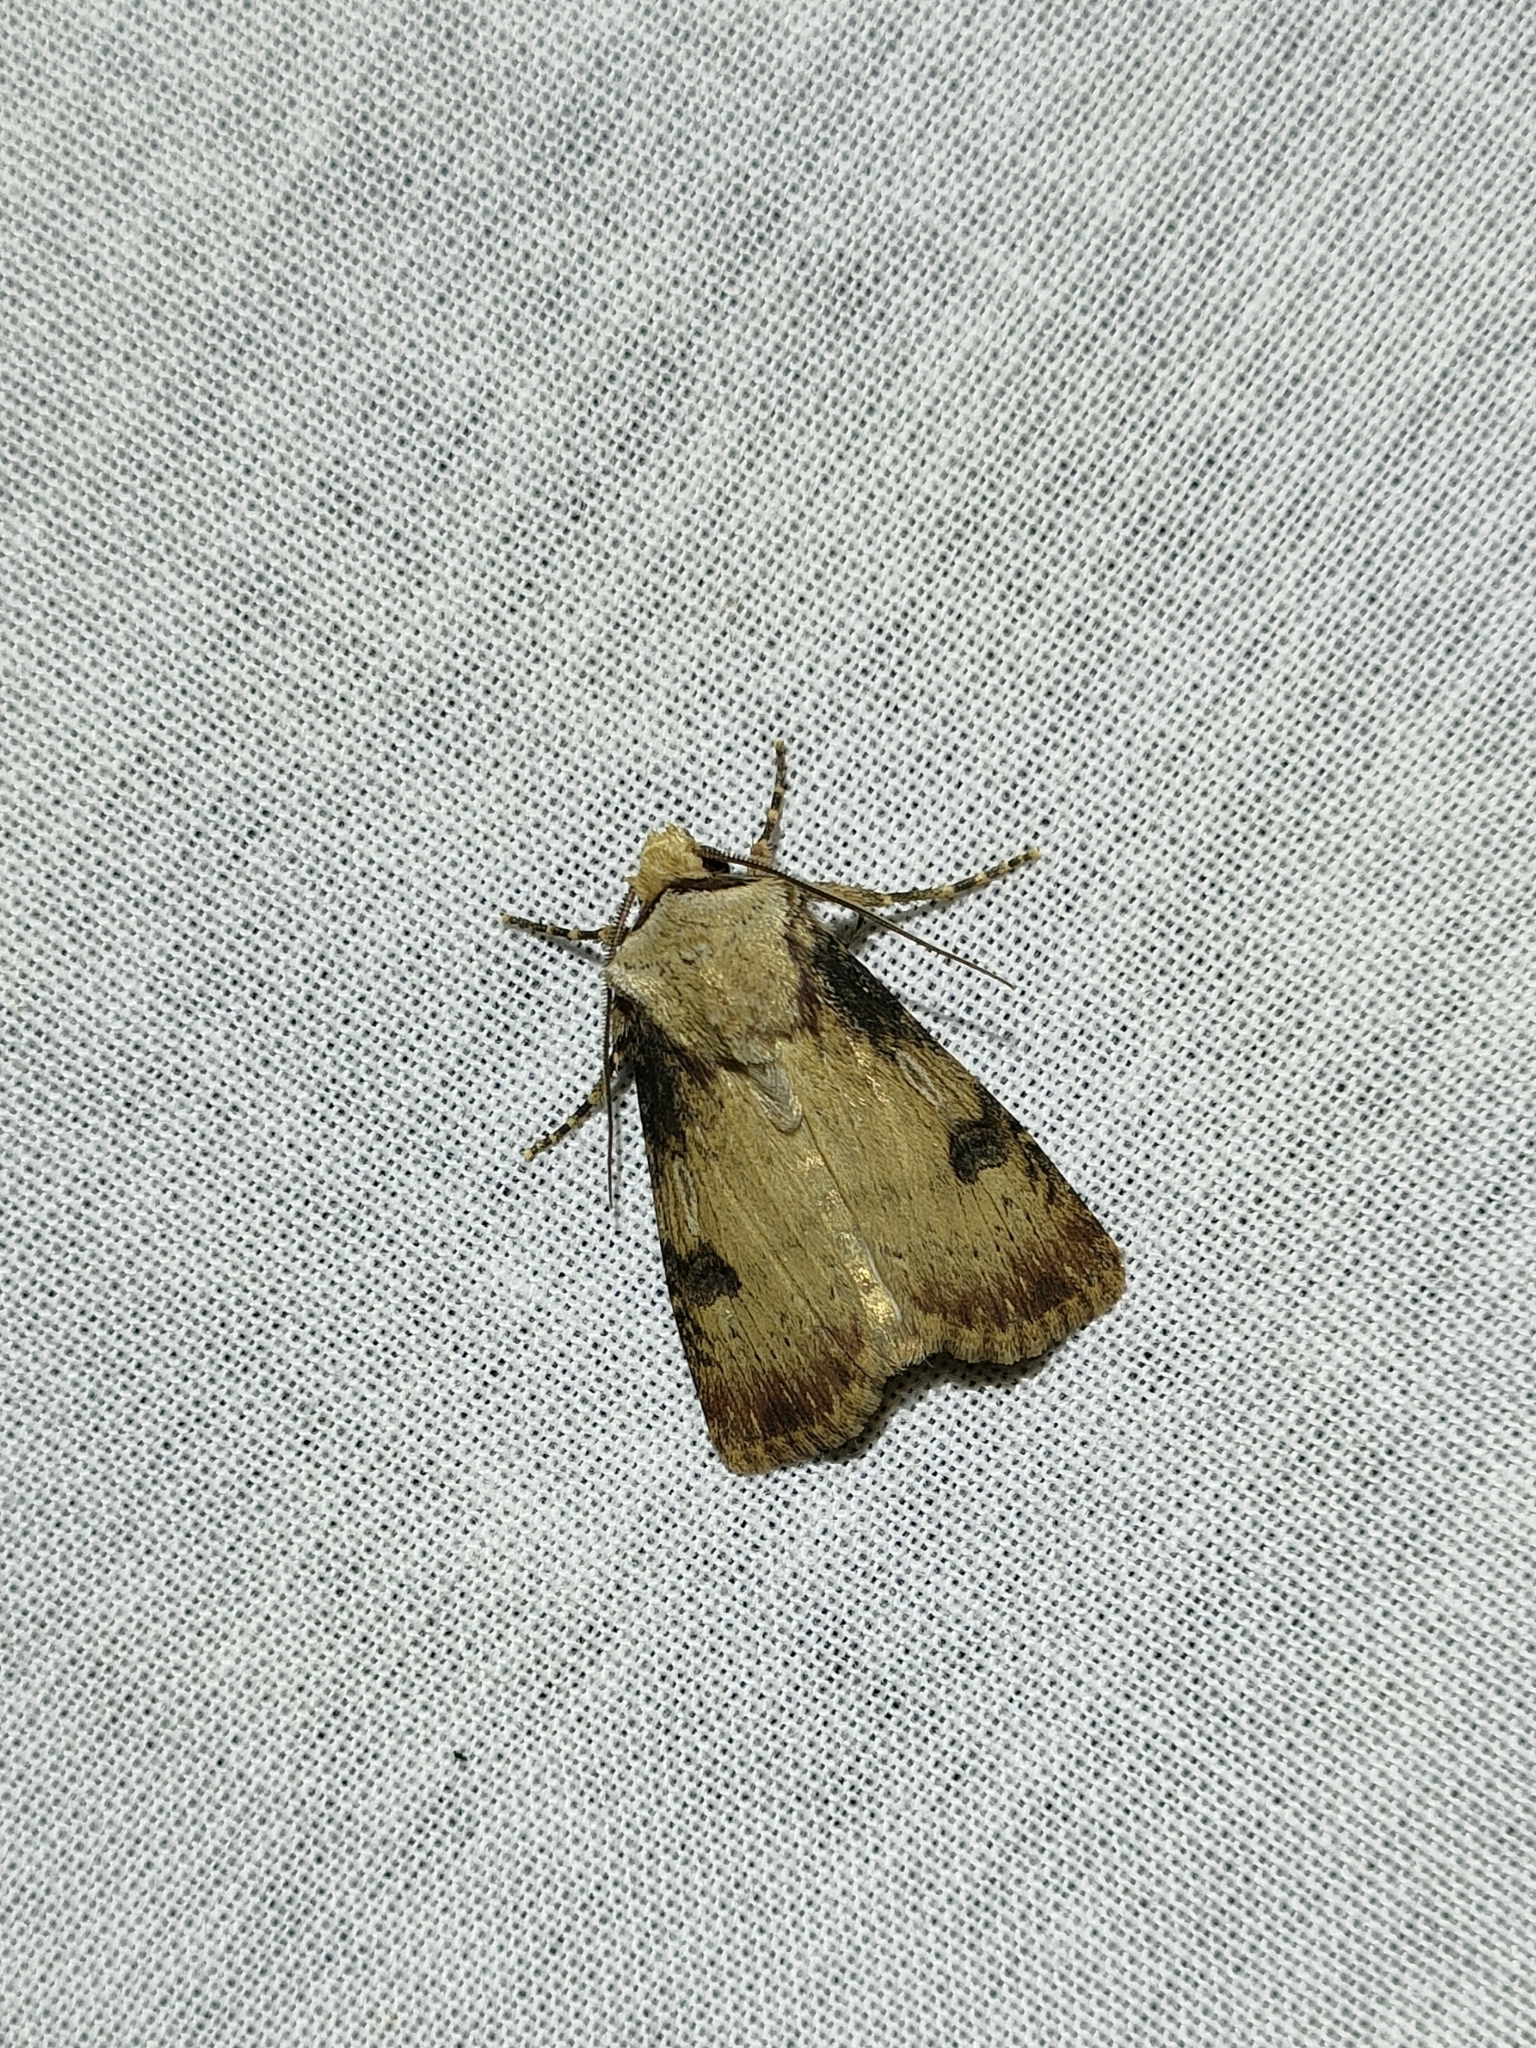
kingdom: Animalia
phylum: Arthropoda
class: Insecta
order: Lepidoptera
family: Noctuidae
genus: Agrotis
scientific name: Agrotis puta
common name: Shuttle-shaped dart
